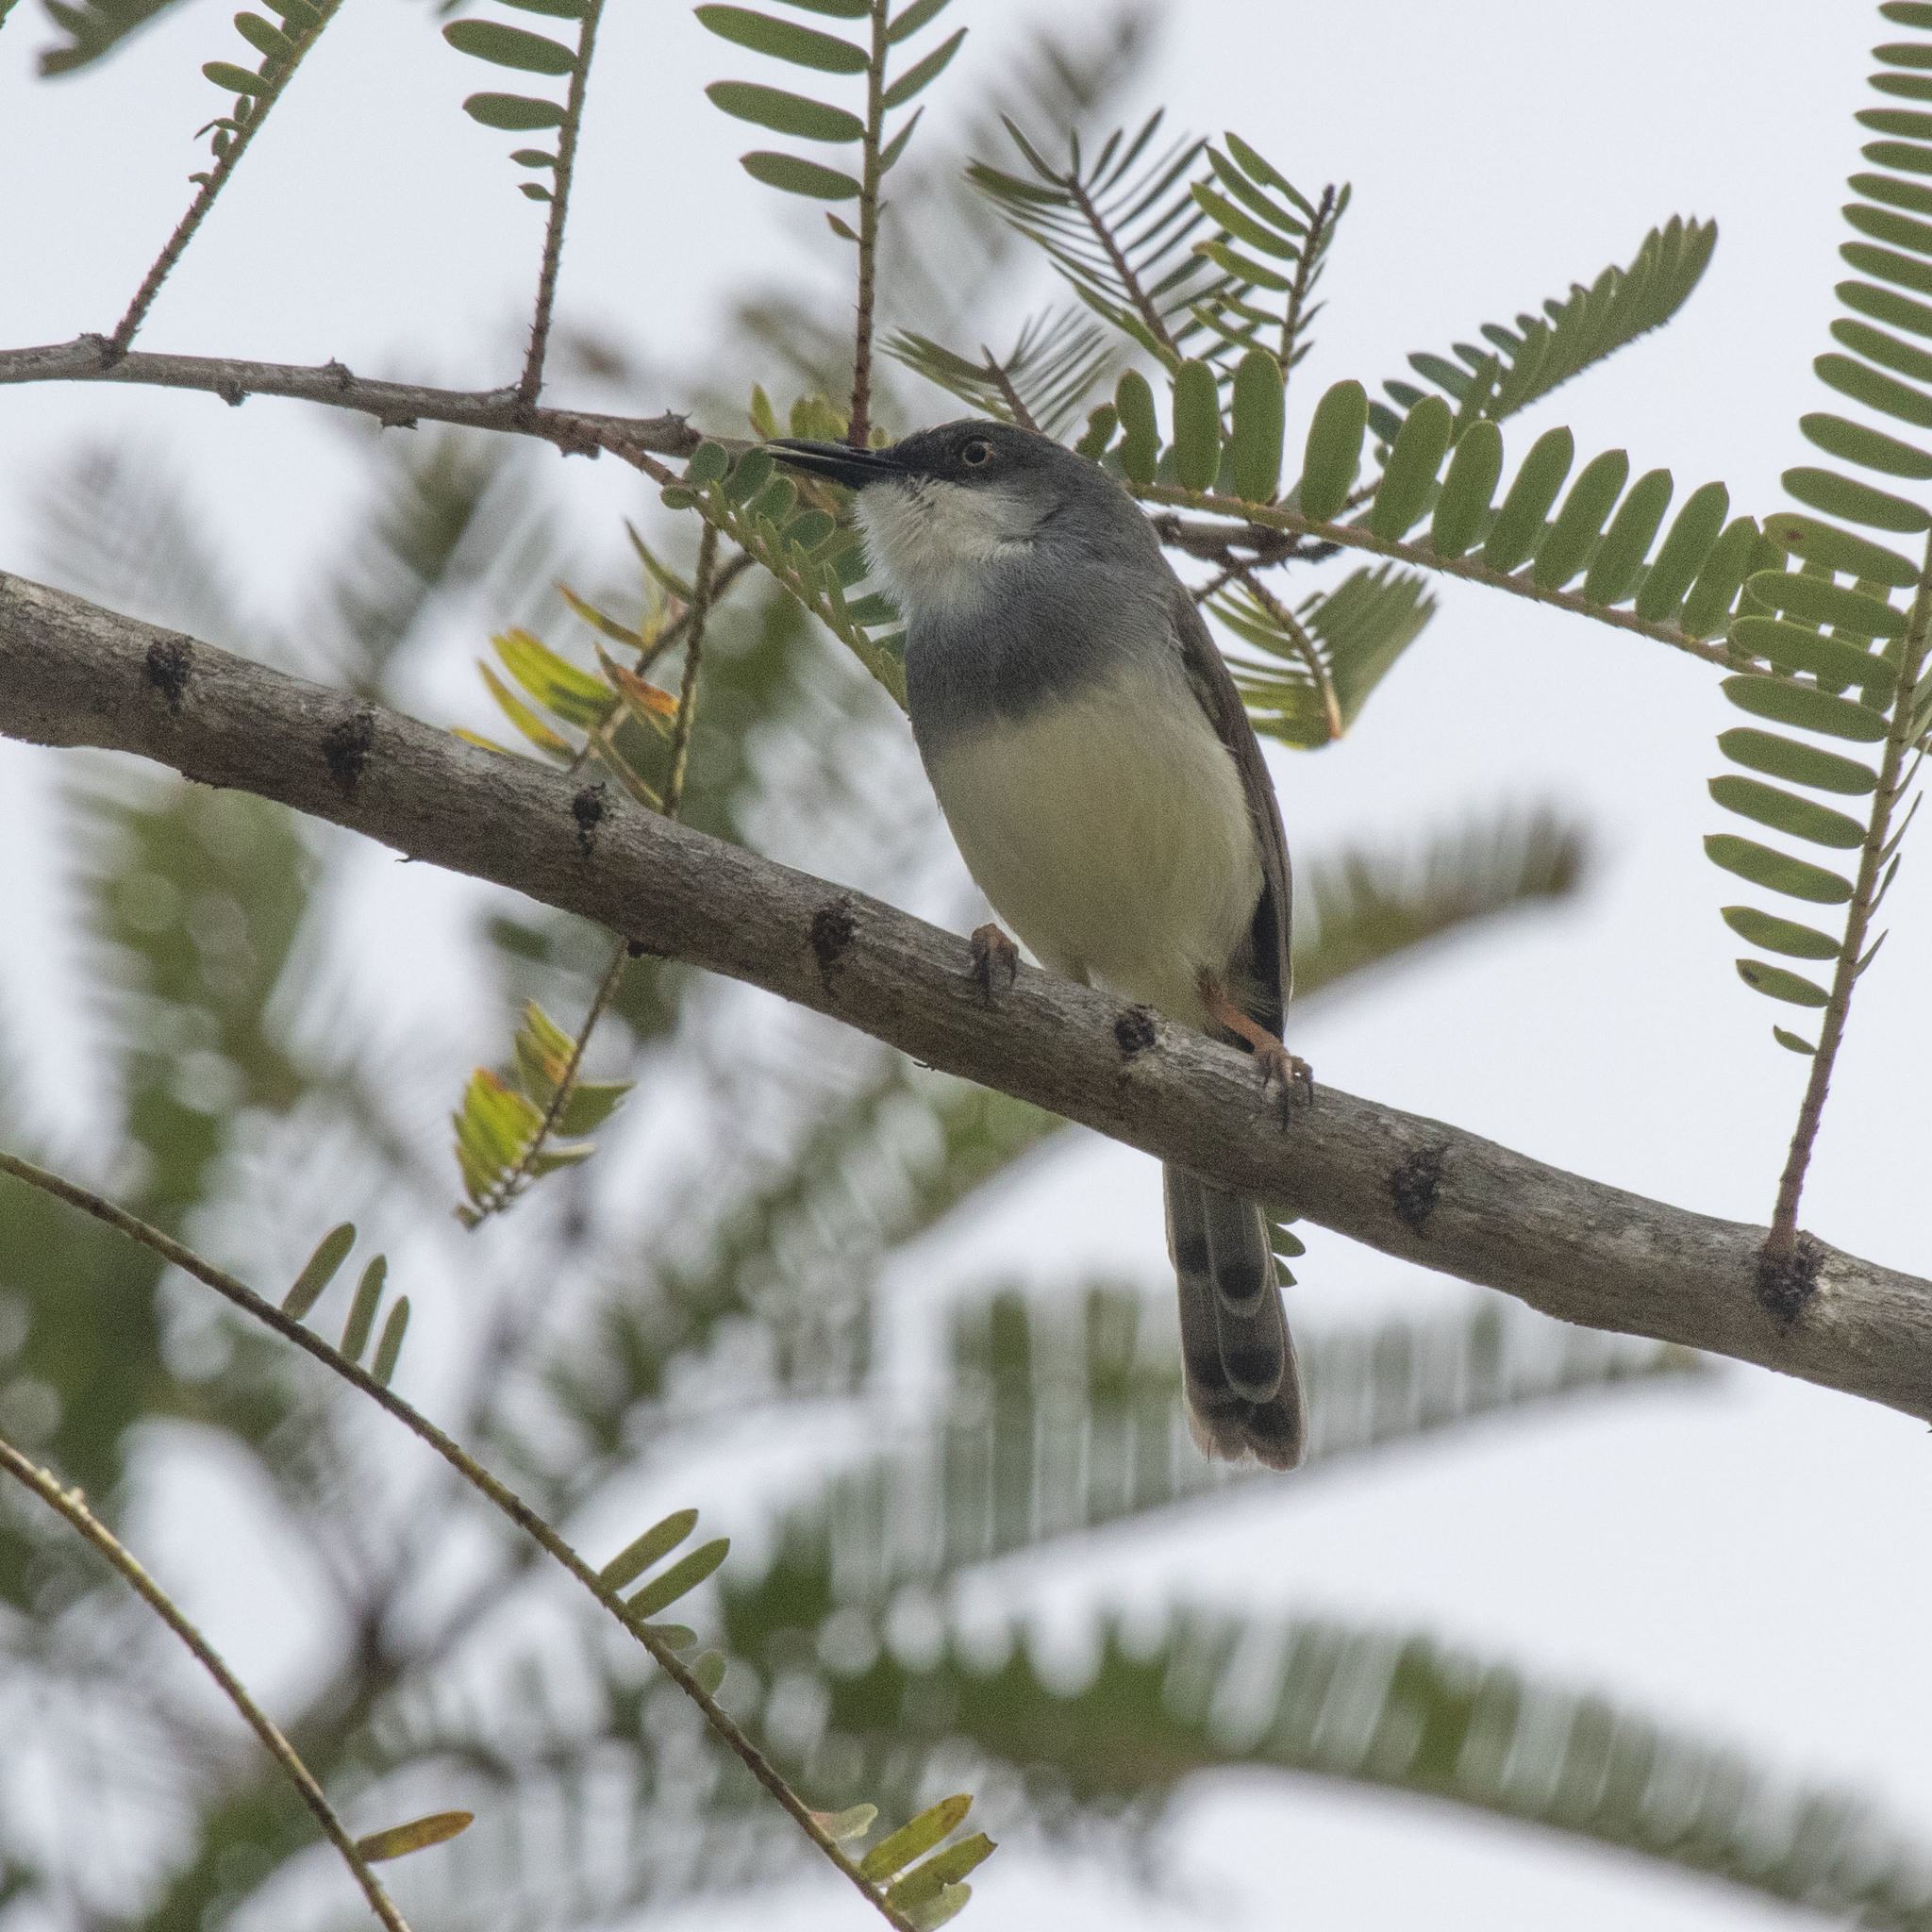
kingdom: Animalia
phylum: Chordata
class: Aves
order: Passeriformes
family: Cisticolidae
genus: Prinia
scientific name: Prinia hodgsonii
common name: Grey-breasted prinia
